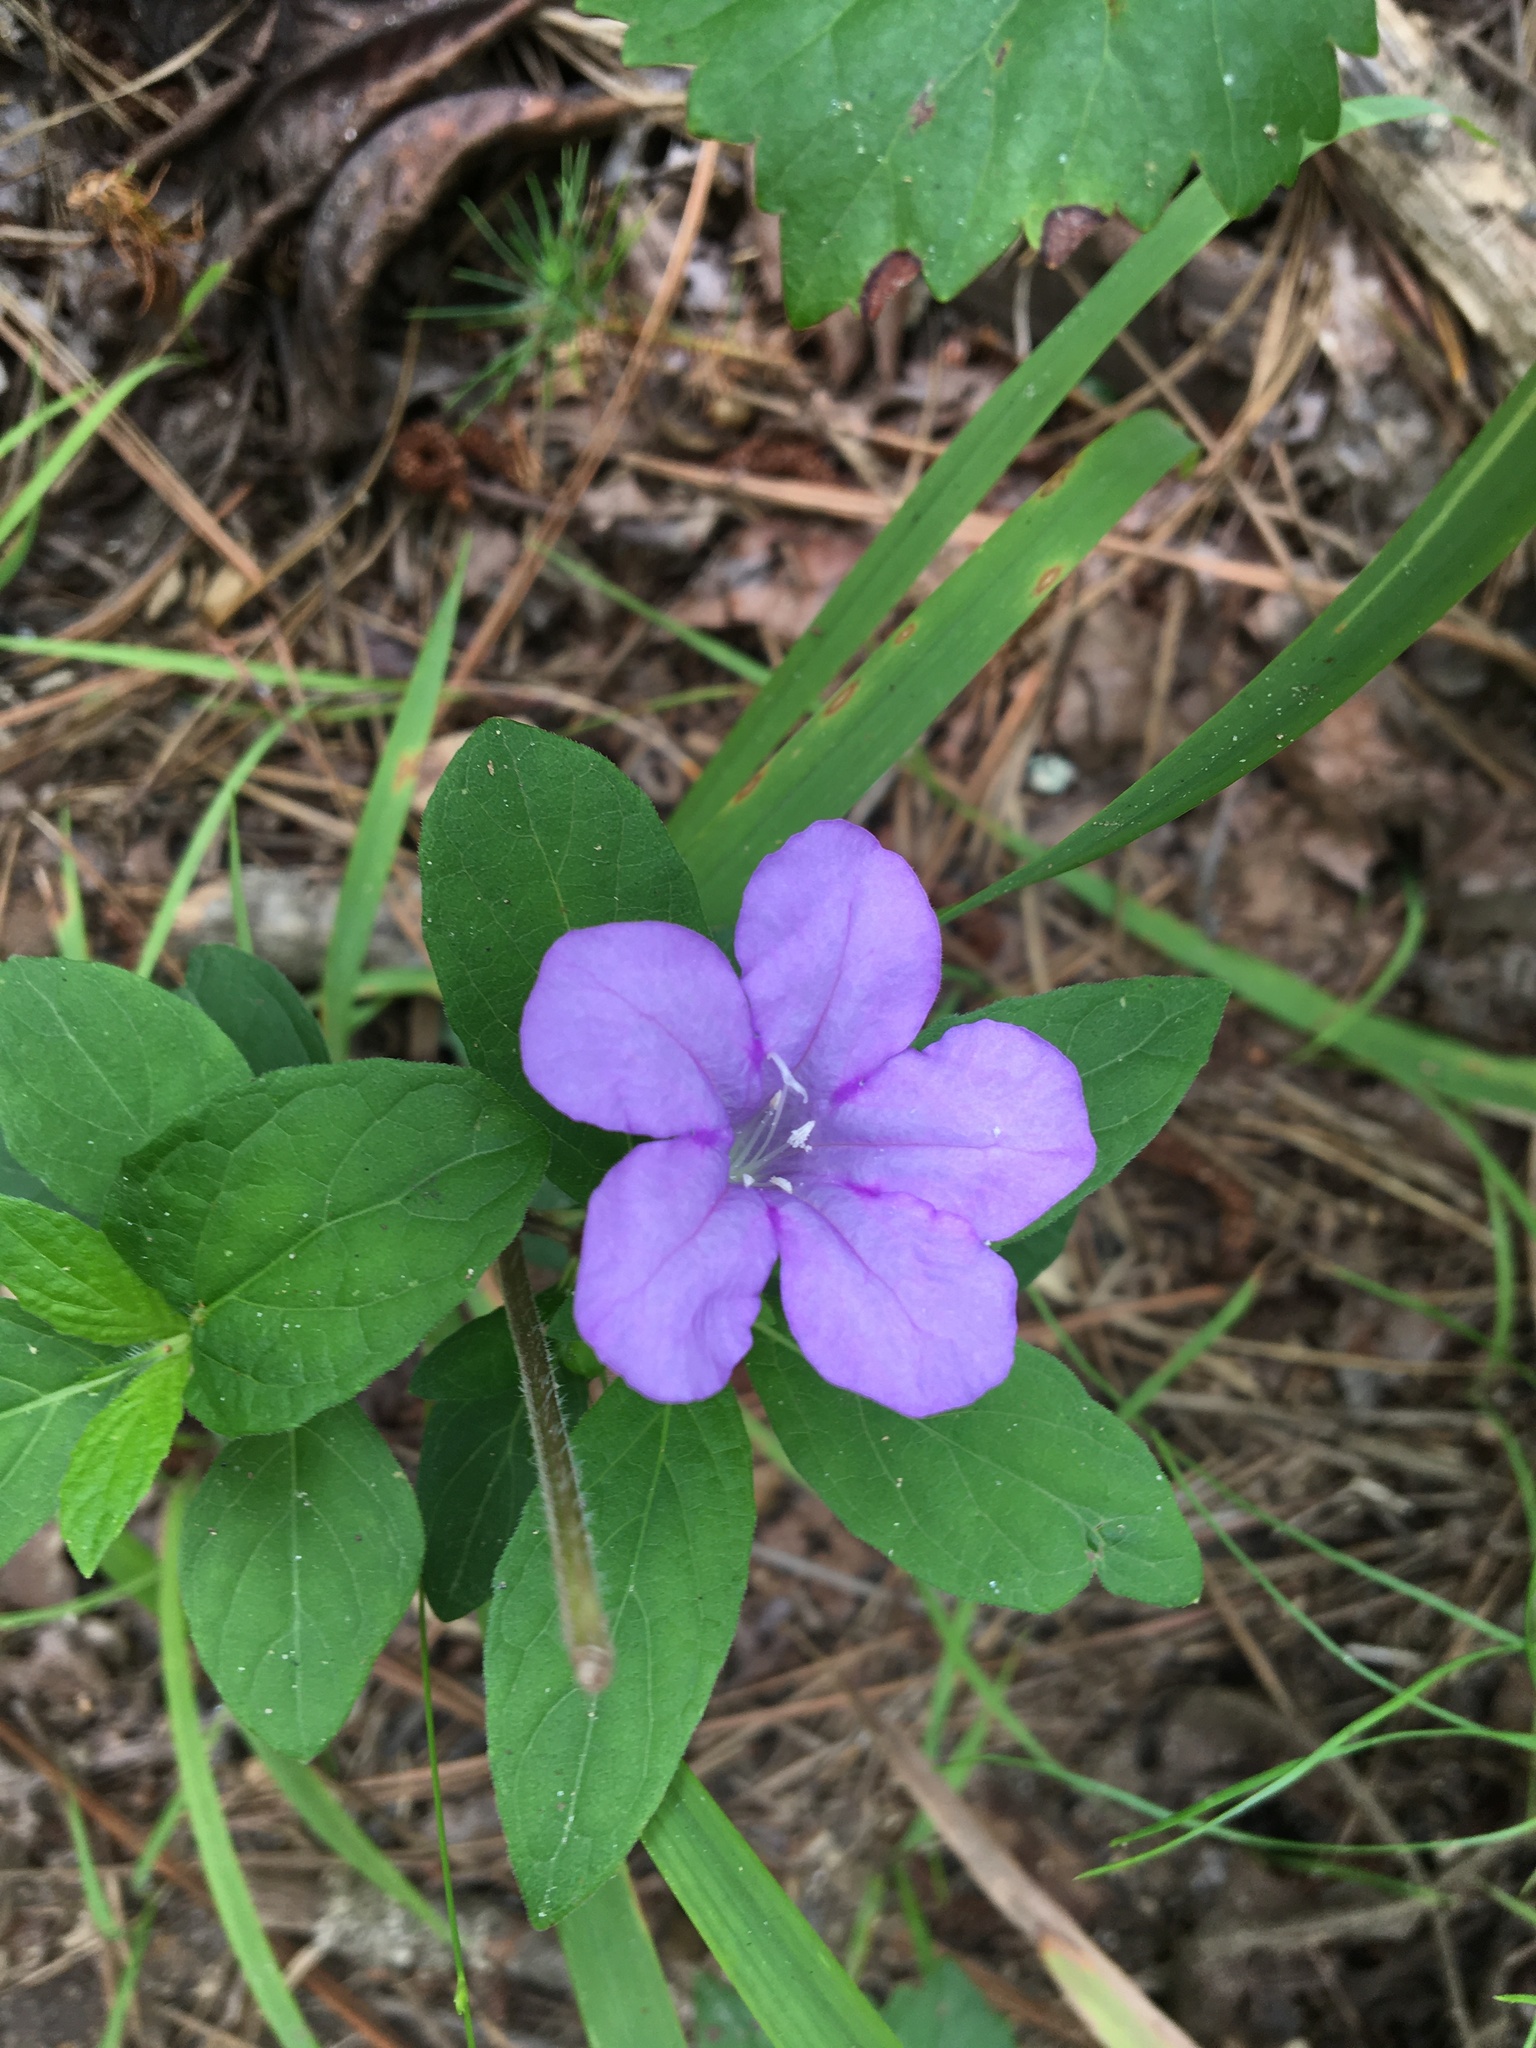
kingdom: Plantae
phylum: Tracheophyta
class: Magnoliopsida
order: Lamiales
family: Acanthaceae
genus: Ruellia
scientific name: Ruellia caroliniensis
